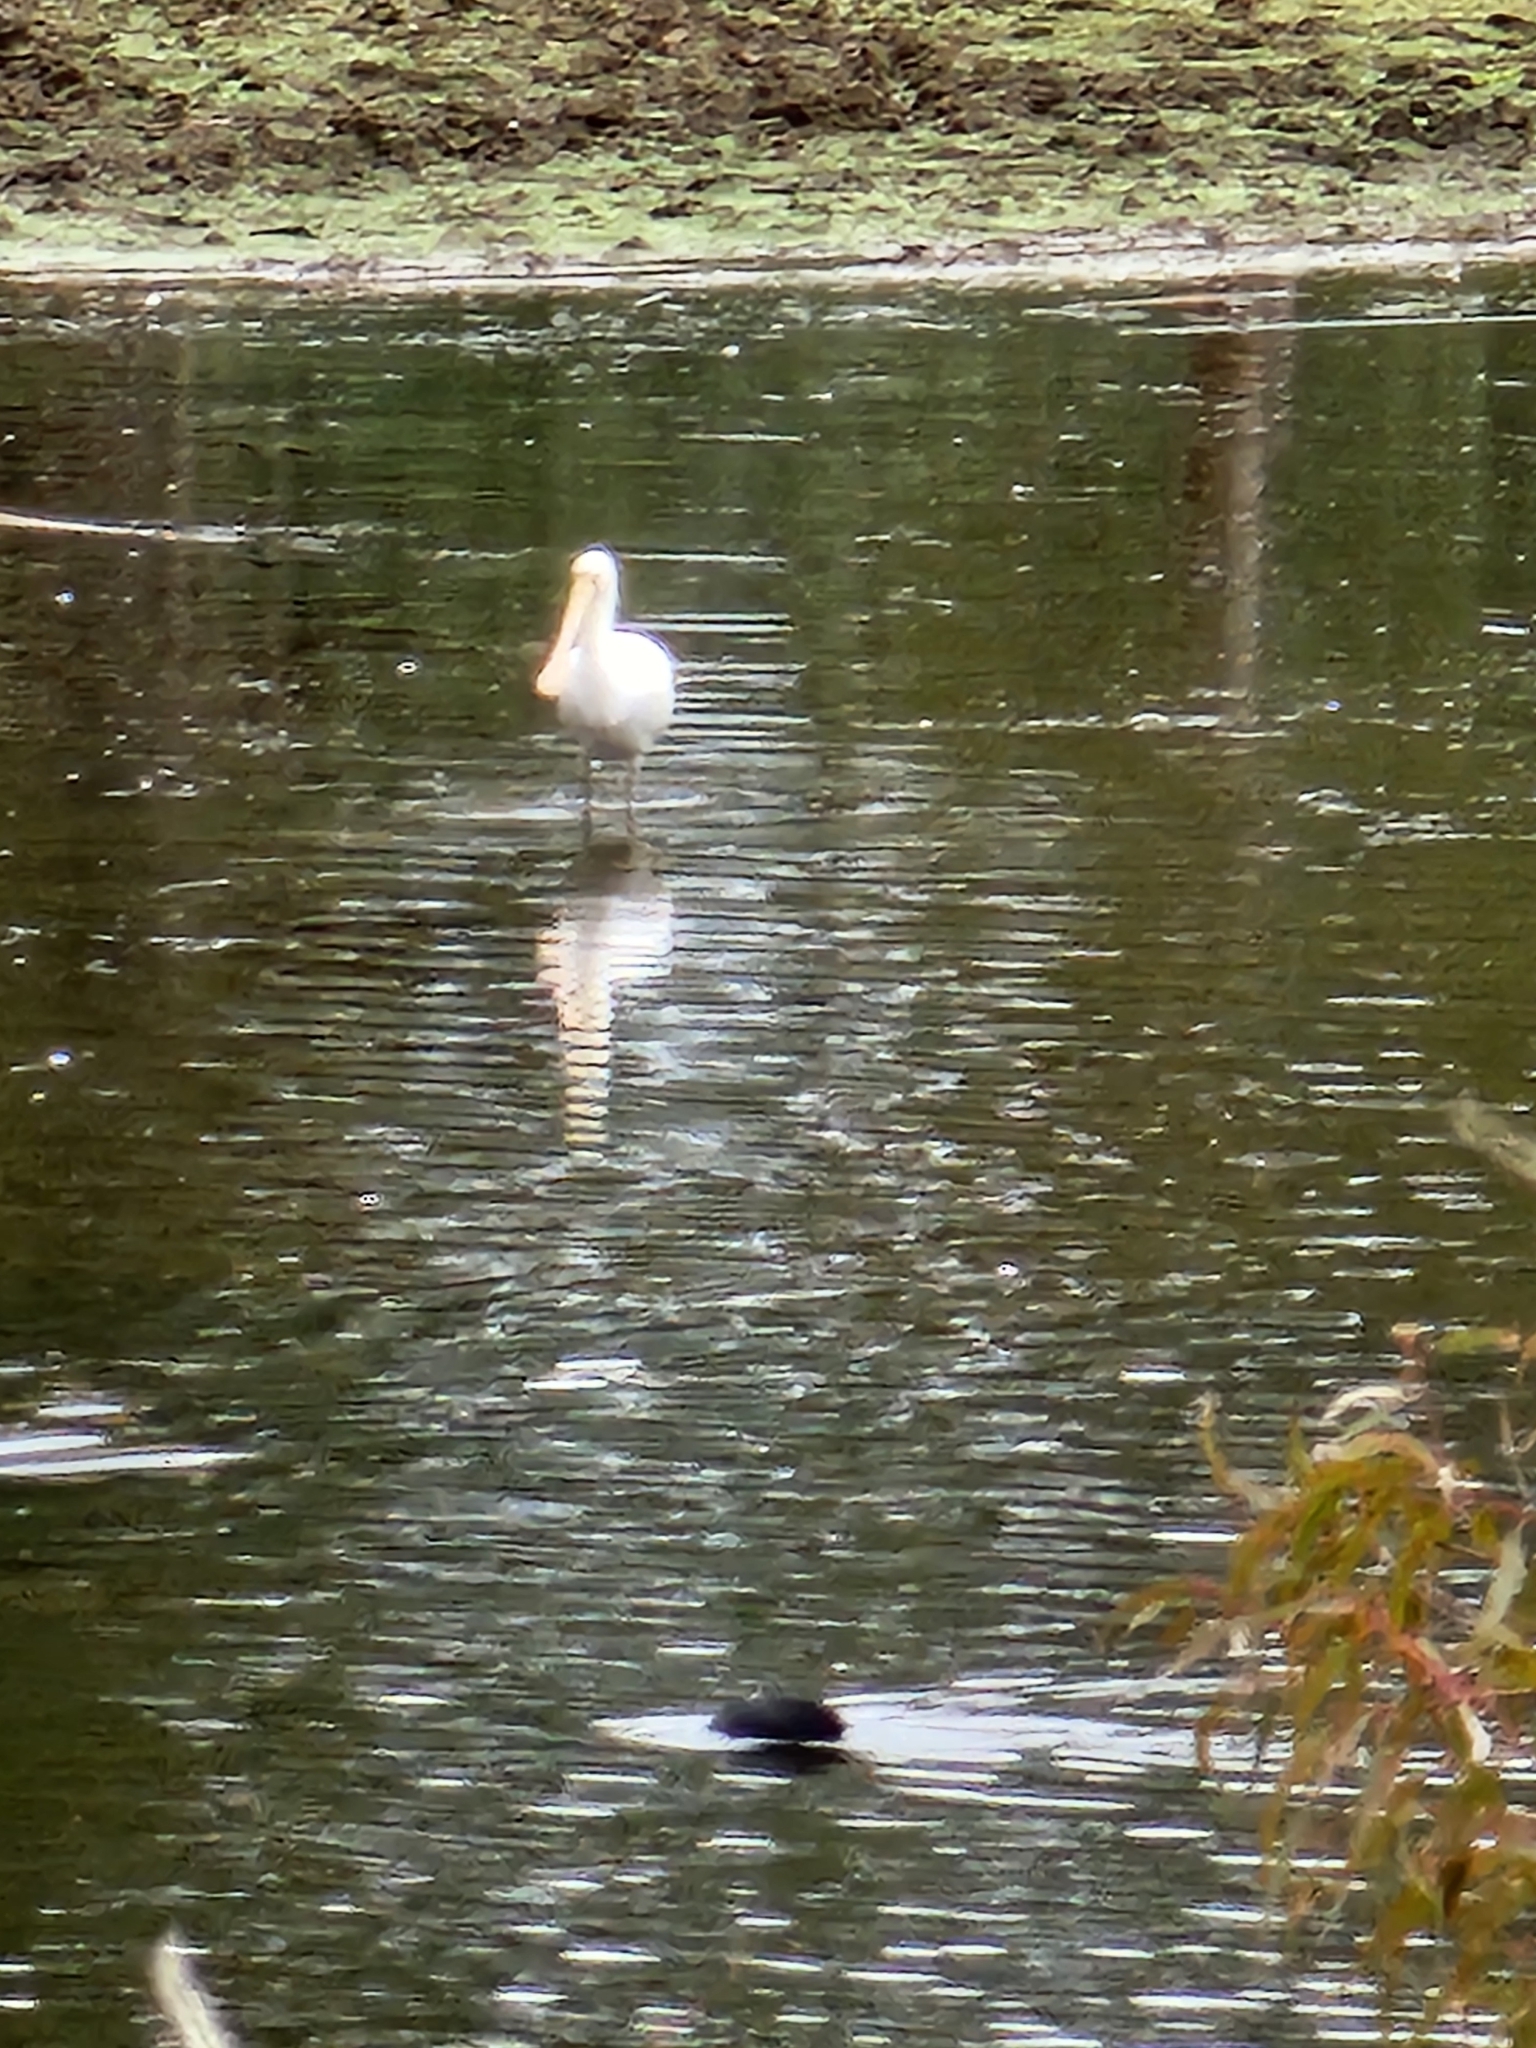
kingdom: Animalia
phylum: Chordata
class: Aves
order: Pelecaniformes
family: Threskiornithidae
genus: Platalea
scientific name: Platalea flavipes
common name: Yellow-billed spoonbill
